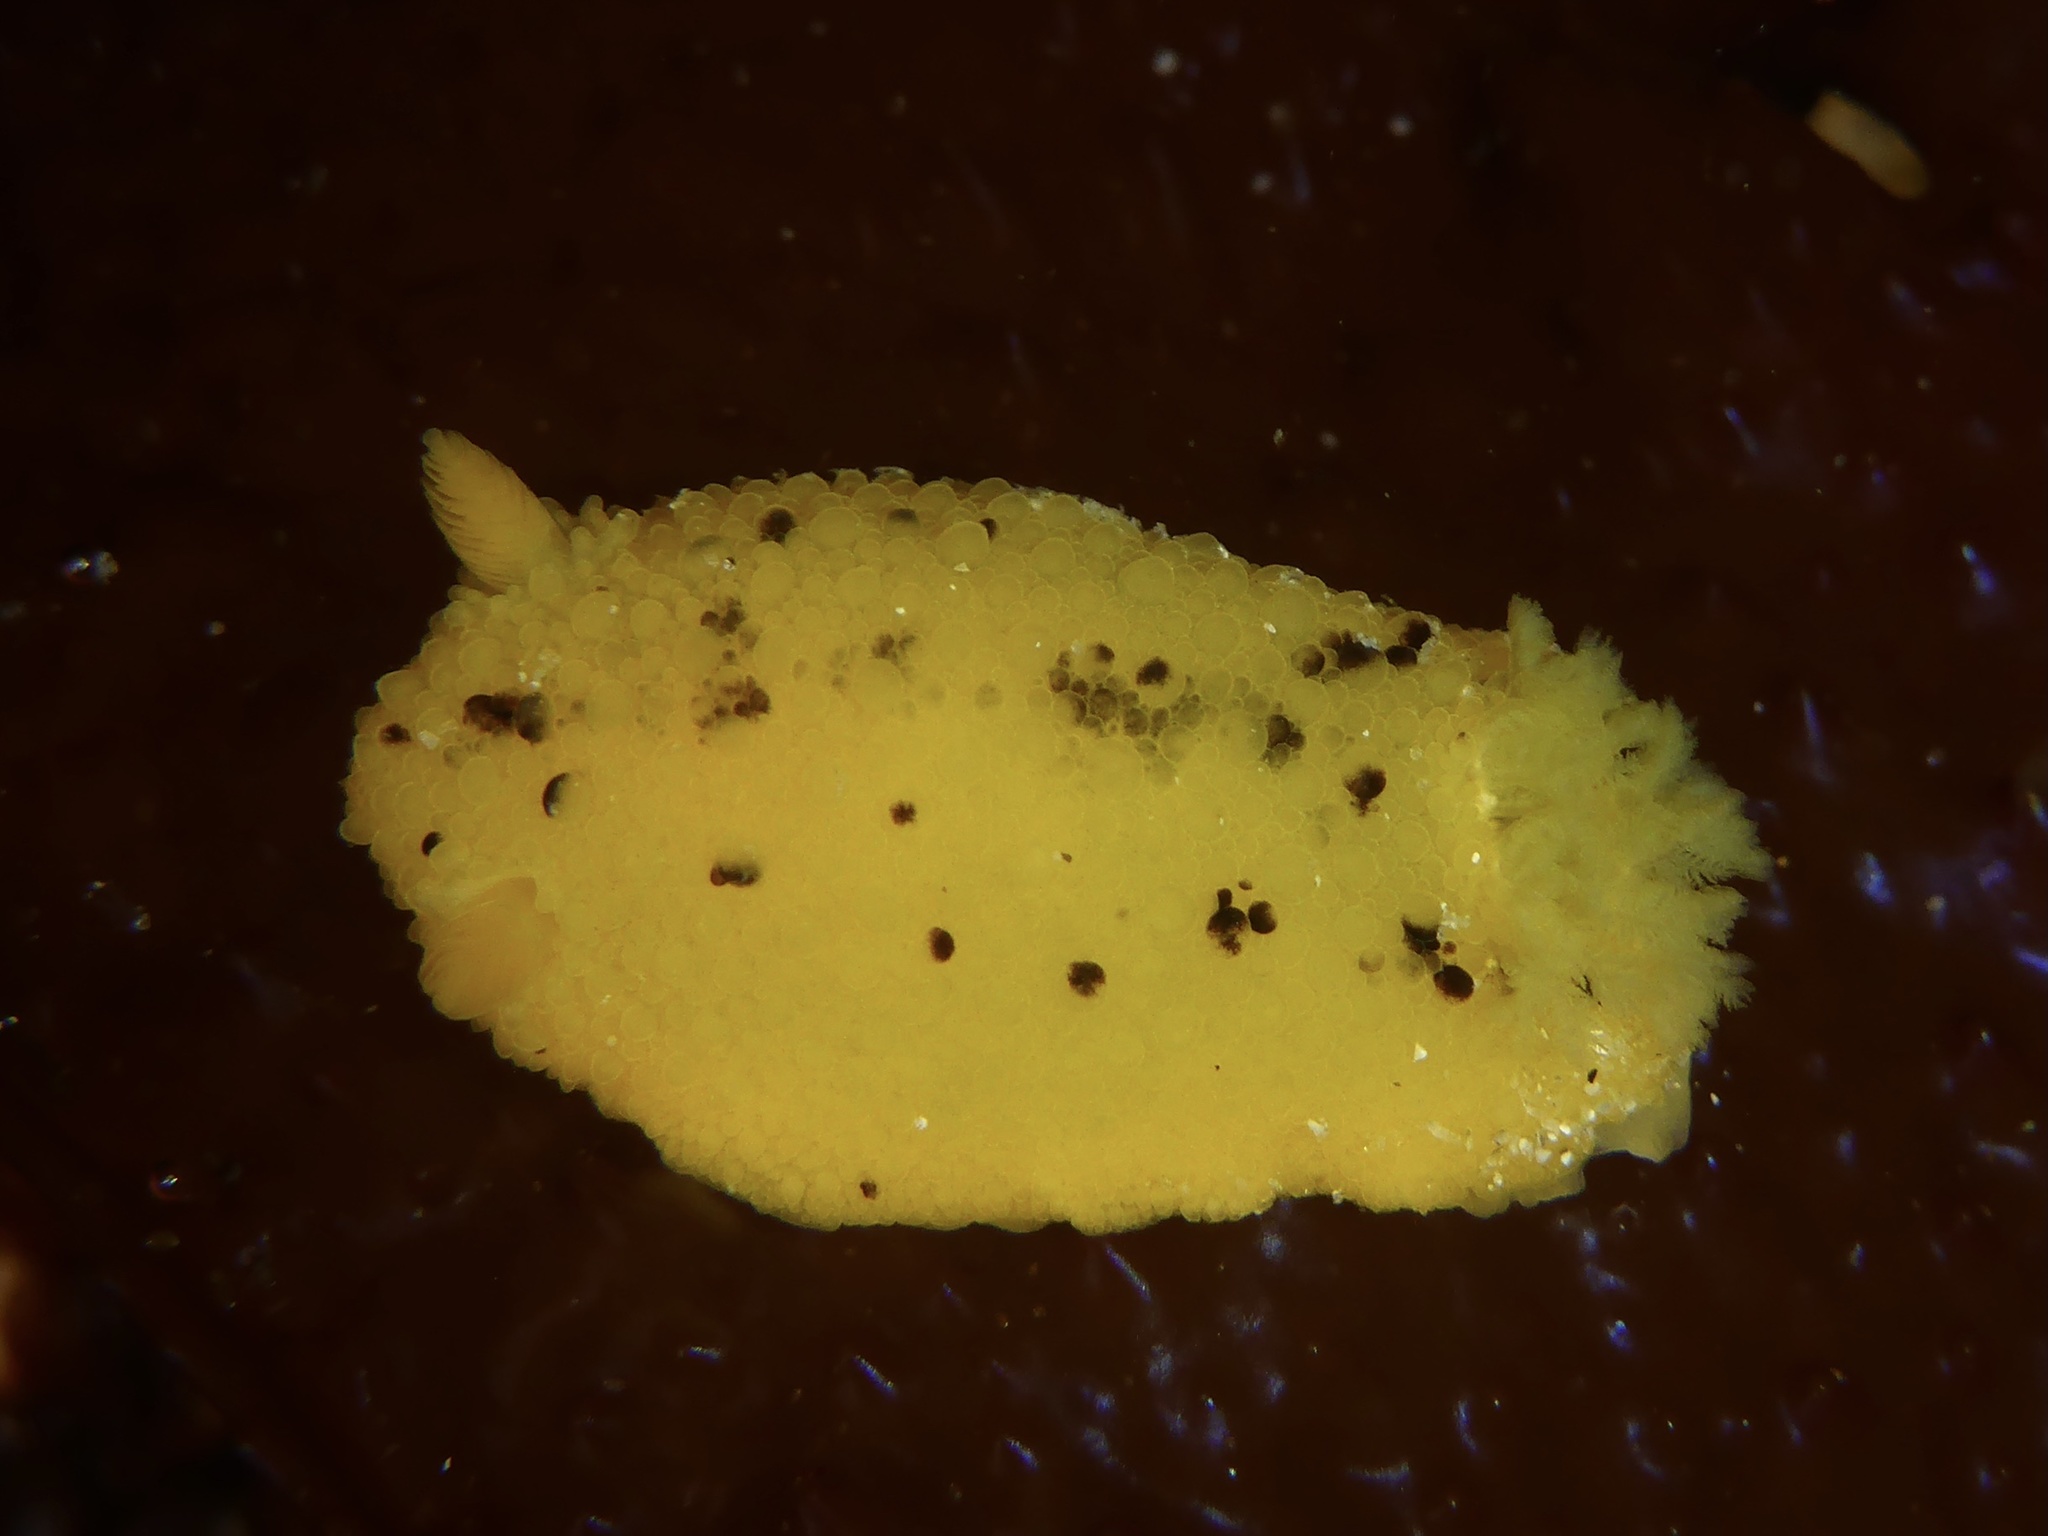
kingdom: Animalia
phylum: Mollusca
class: Gastropoda
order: Nudibranchia
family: Dorididae
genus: Doris
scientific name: Doris montereyensis
